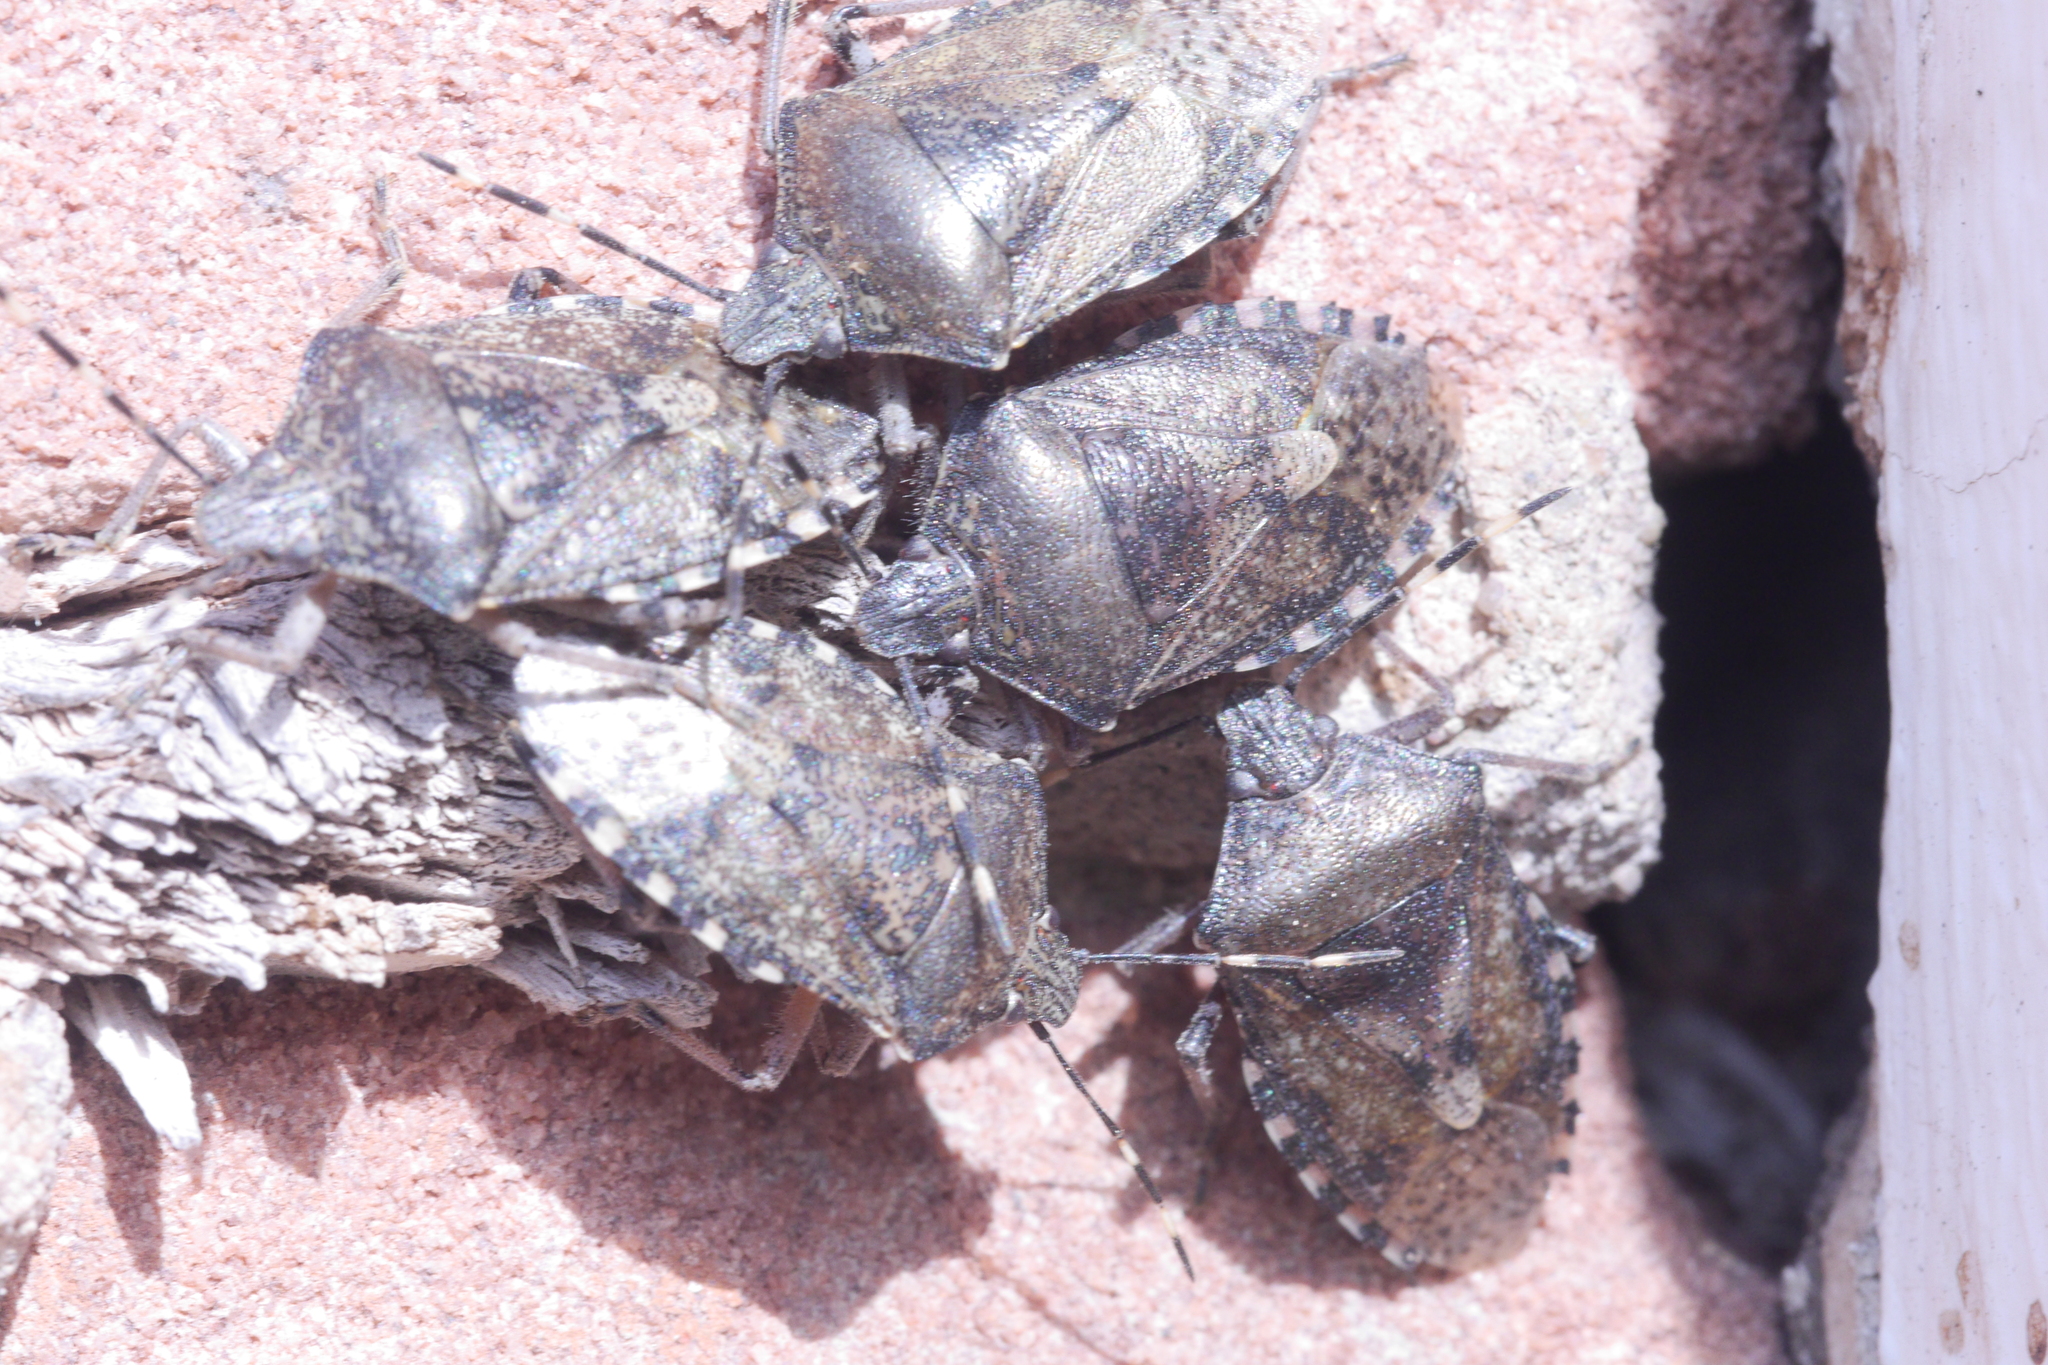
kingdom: Animalia
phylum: Arthropoda
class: Insecta
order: Hemiptera
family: Pentatomidae
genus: Rhaphigaster
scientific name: Rhaphigaster nebulosa
